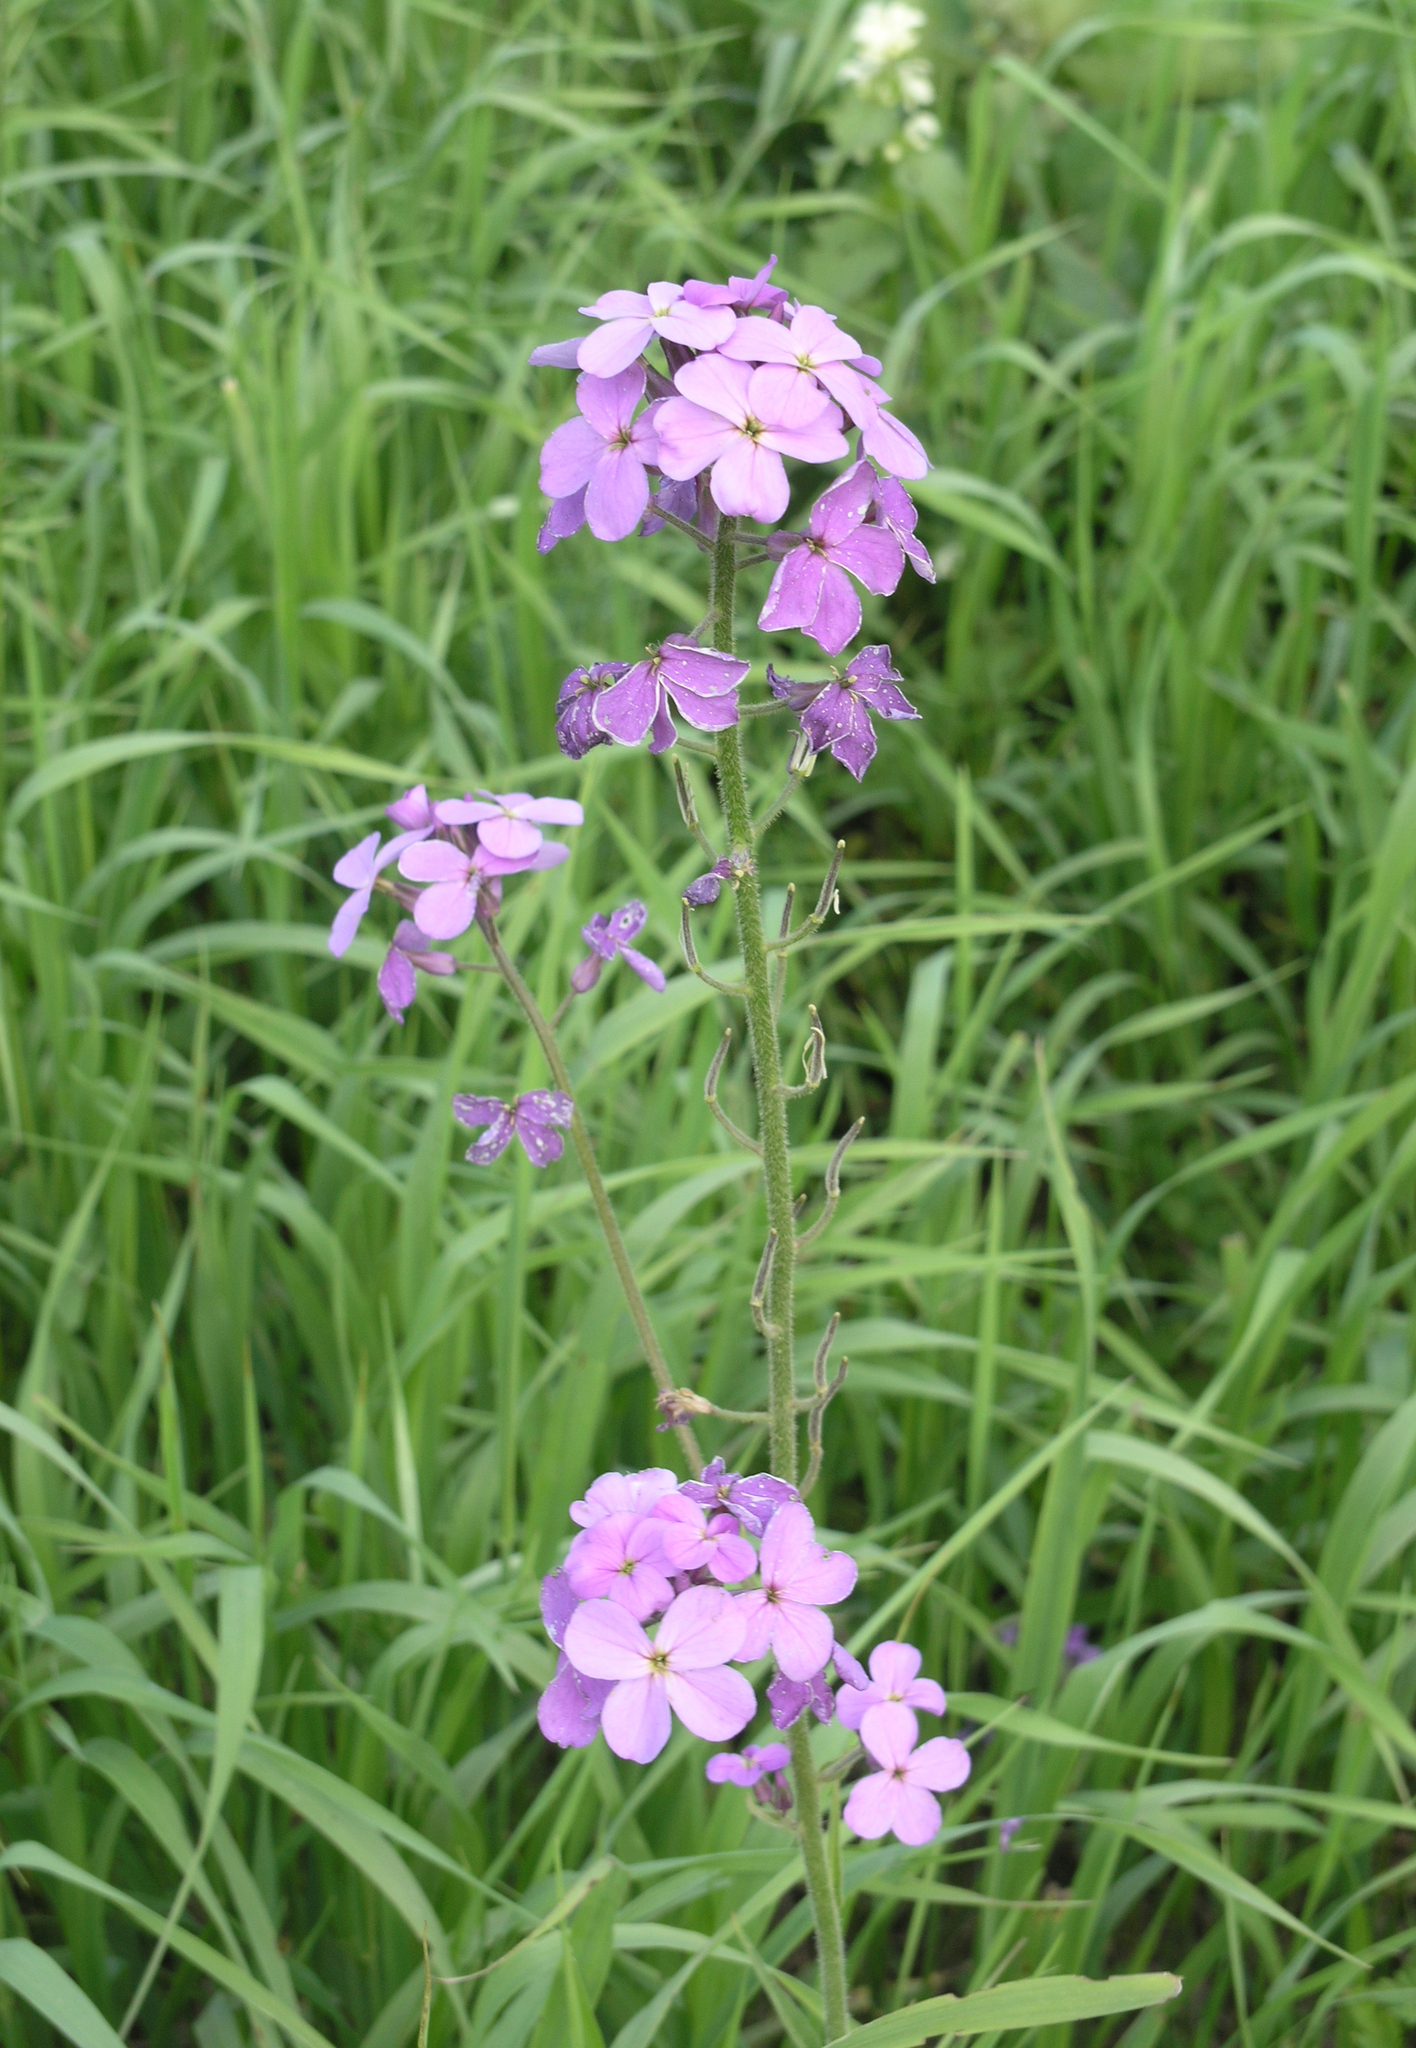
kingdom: Plantae
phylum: Tracheophyta
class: Magnoliopsida
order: Brassicales
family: Brassicaceae
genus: Hesperis
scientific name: Hesperis sibirica
